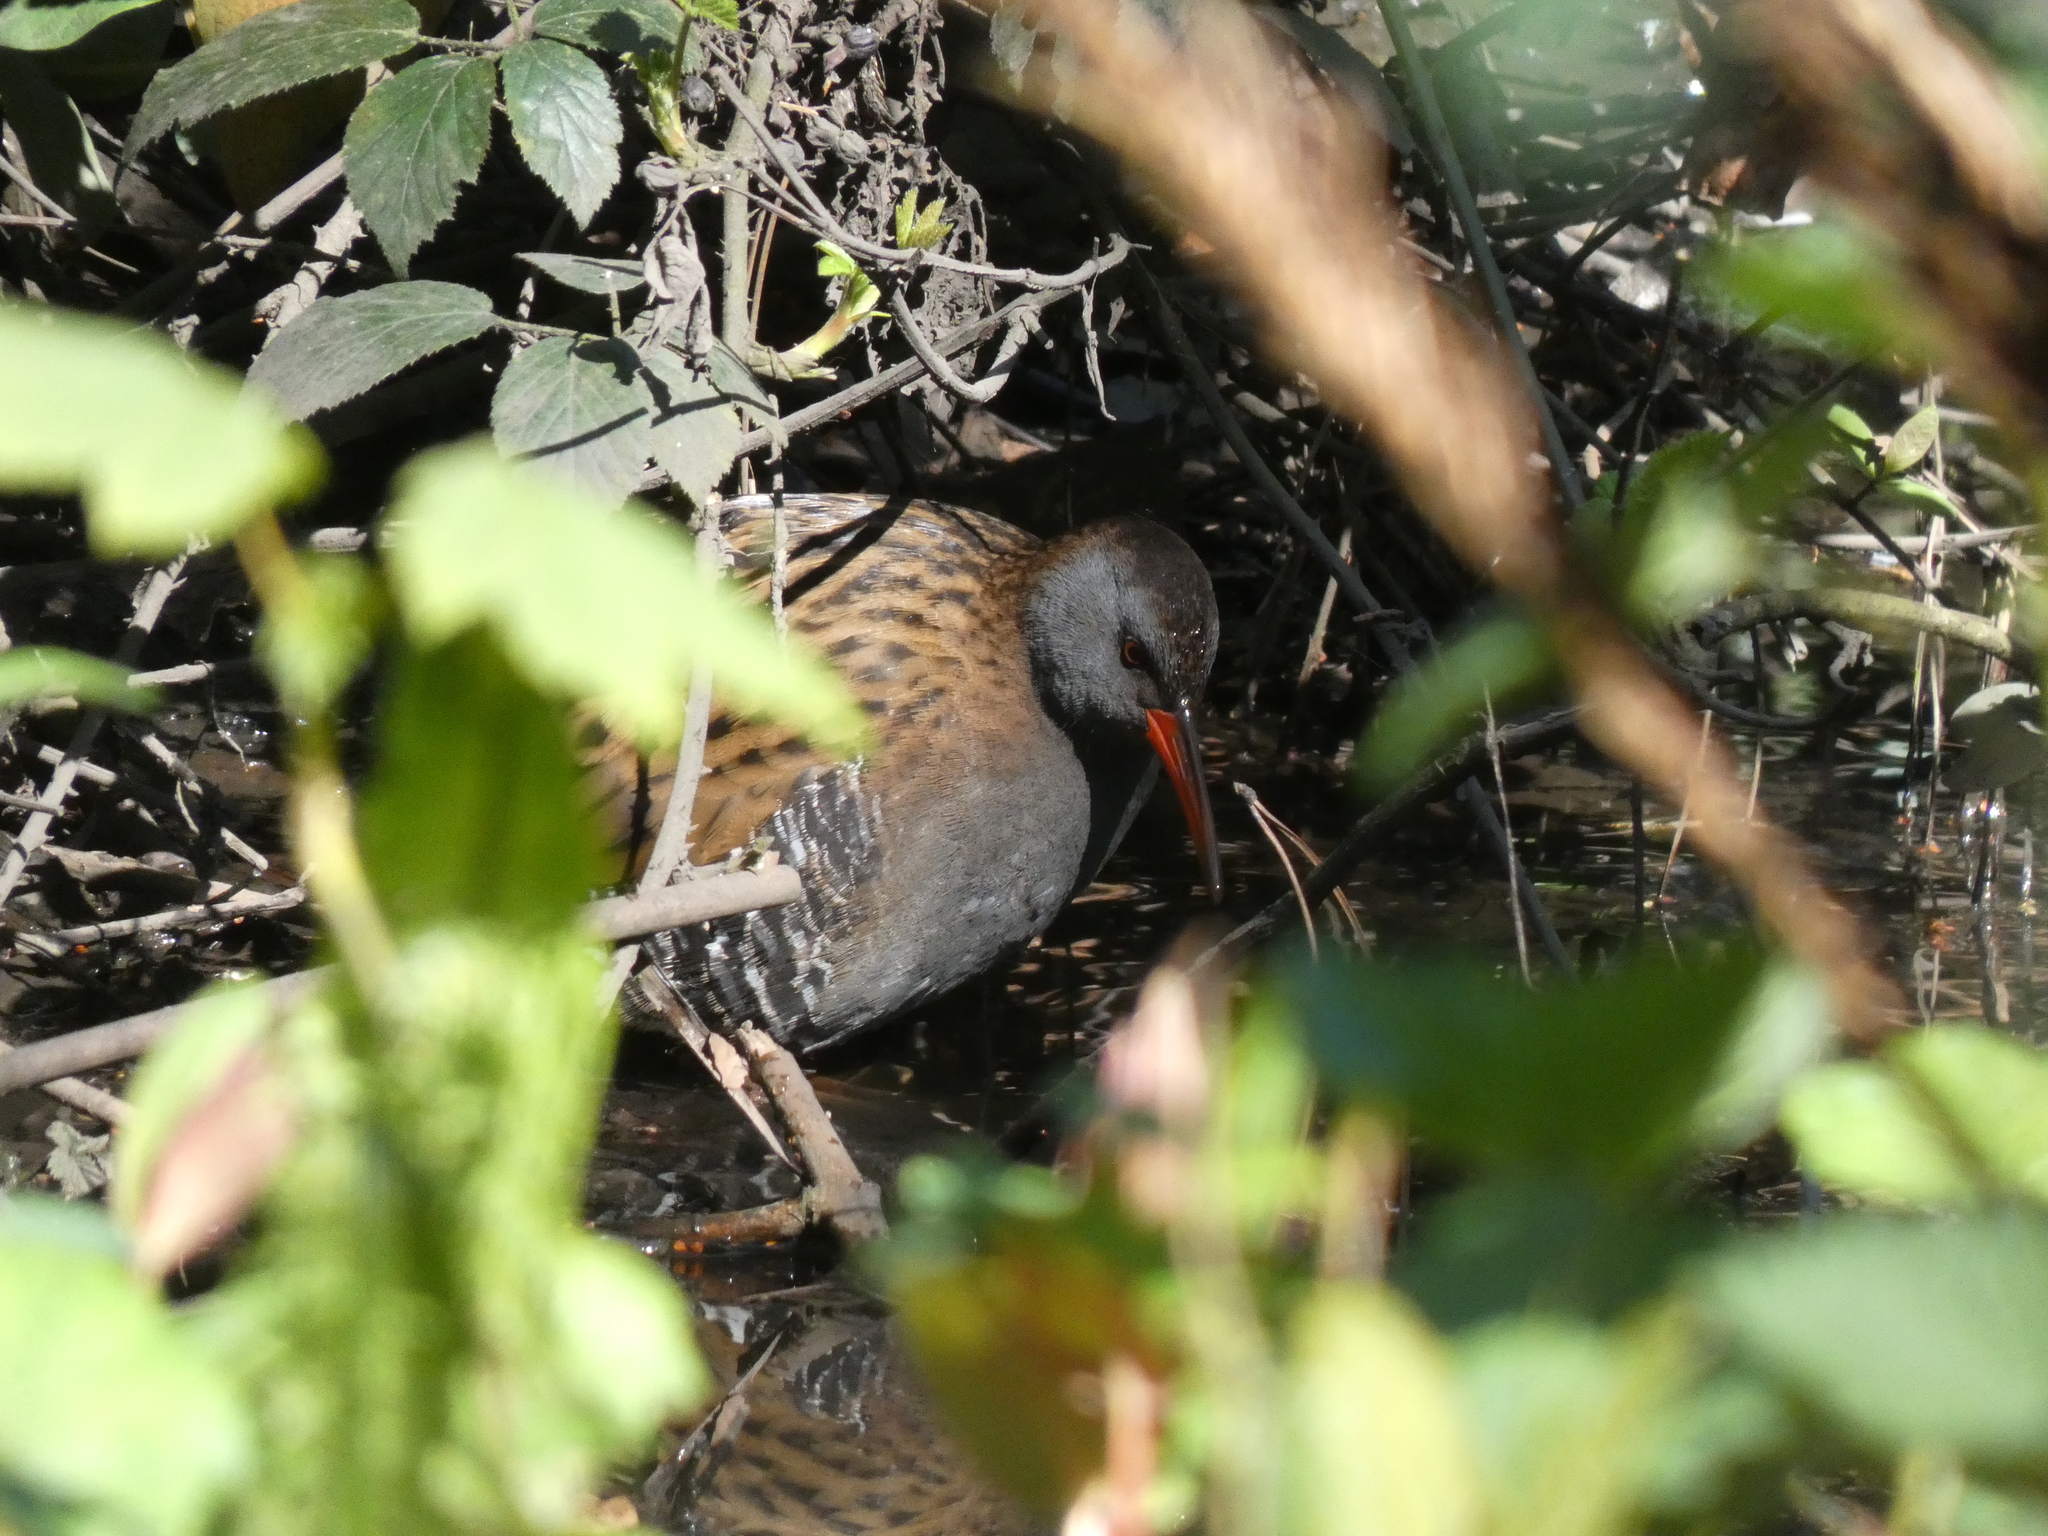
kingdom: Animalia
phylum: Chordata
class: Aves
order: Gruiformes
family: Rallidae
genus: Rallus
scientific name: Rallus aquaticus
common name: Water rail
